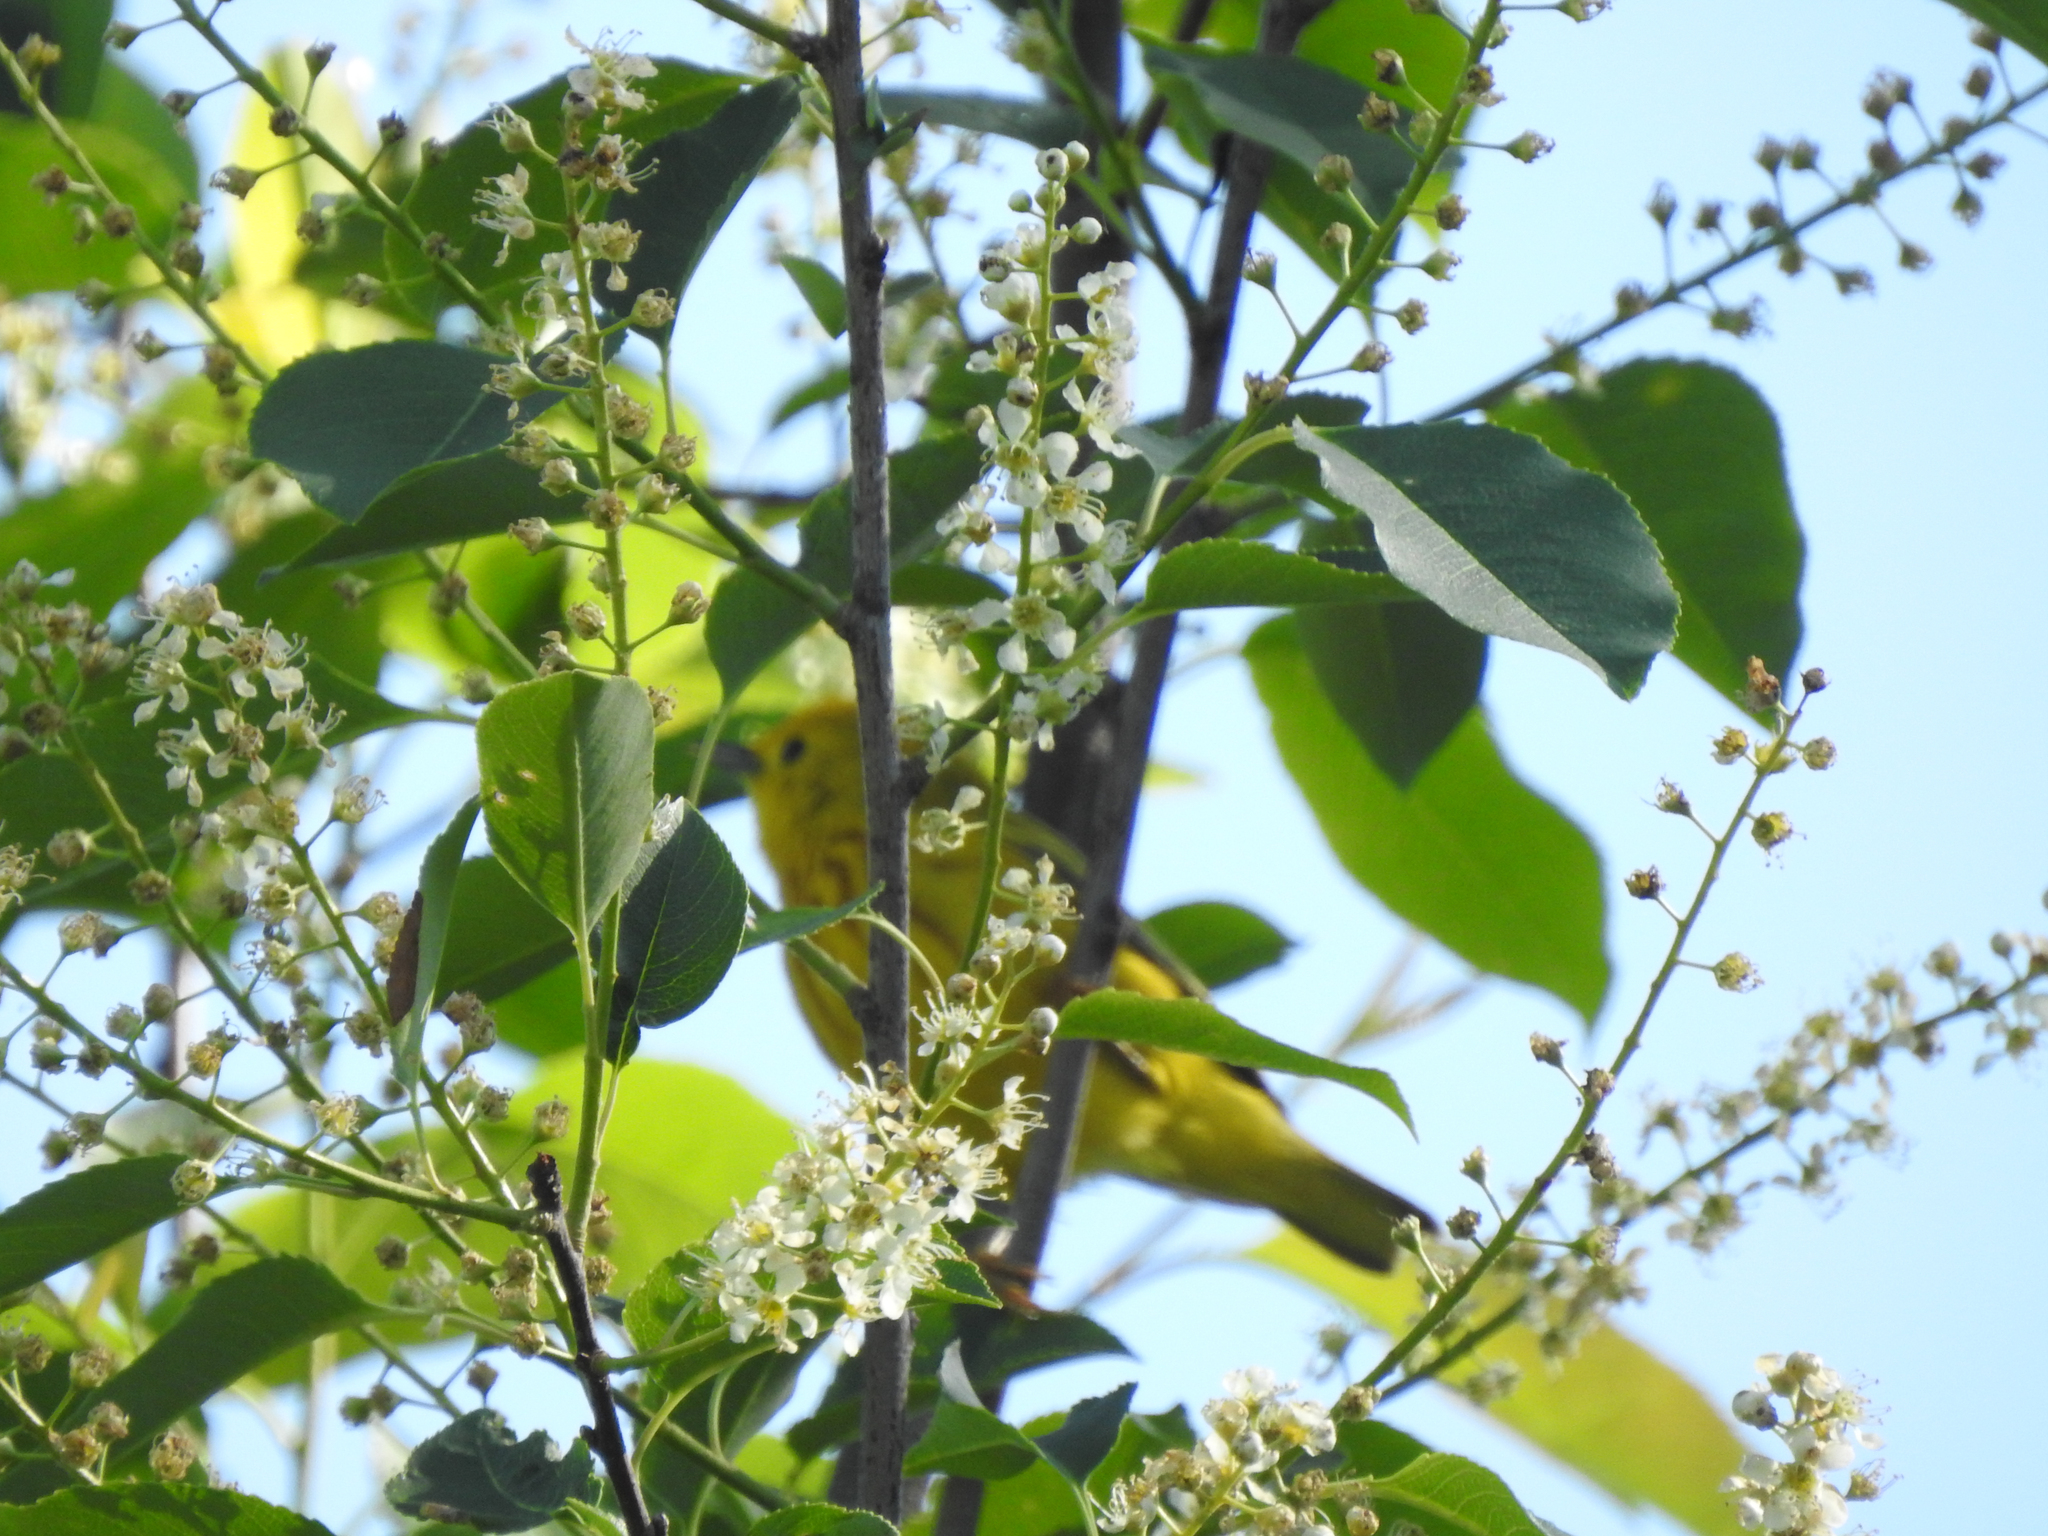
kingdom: Animalia
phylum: Chordata
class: Aves
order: Passeriformes
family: Parulidae
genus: Setophaga
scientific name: Setophaga petechia
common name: Yellow warbler
